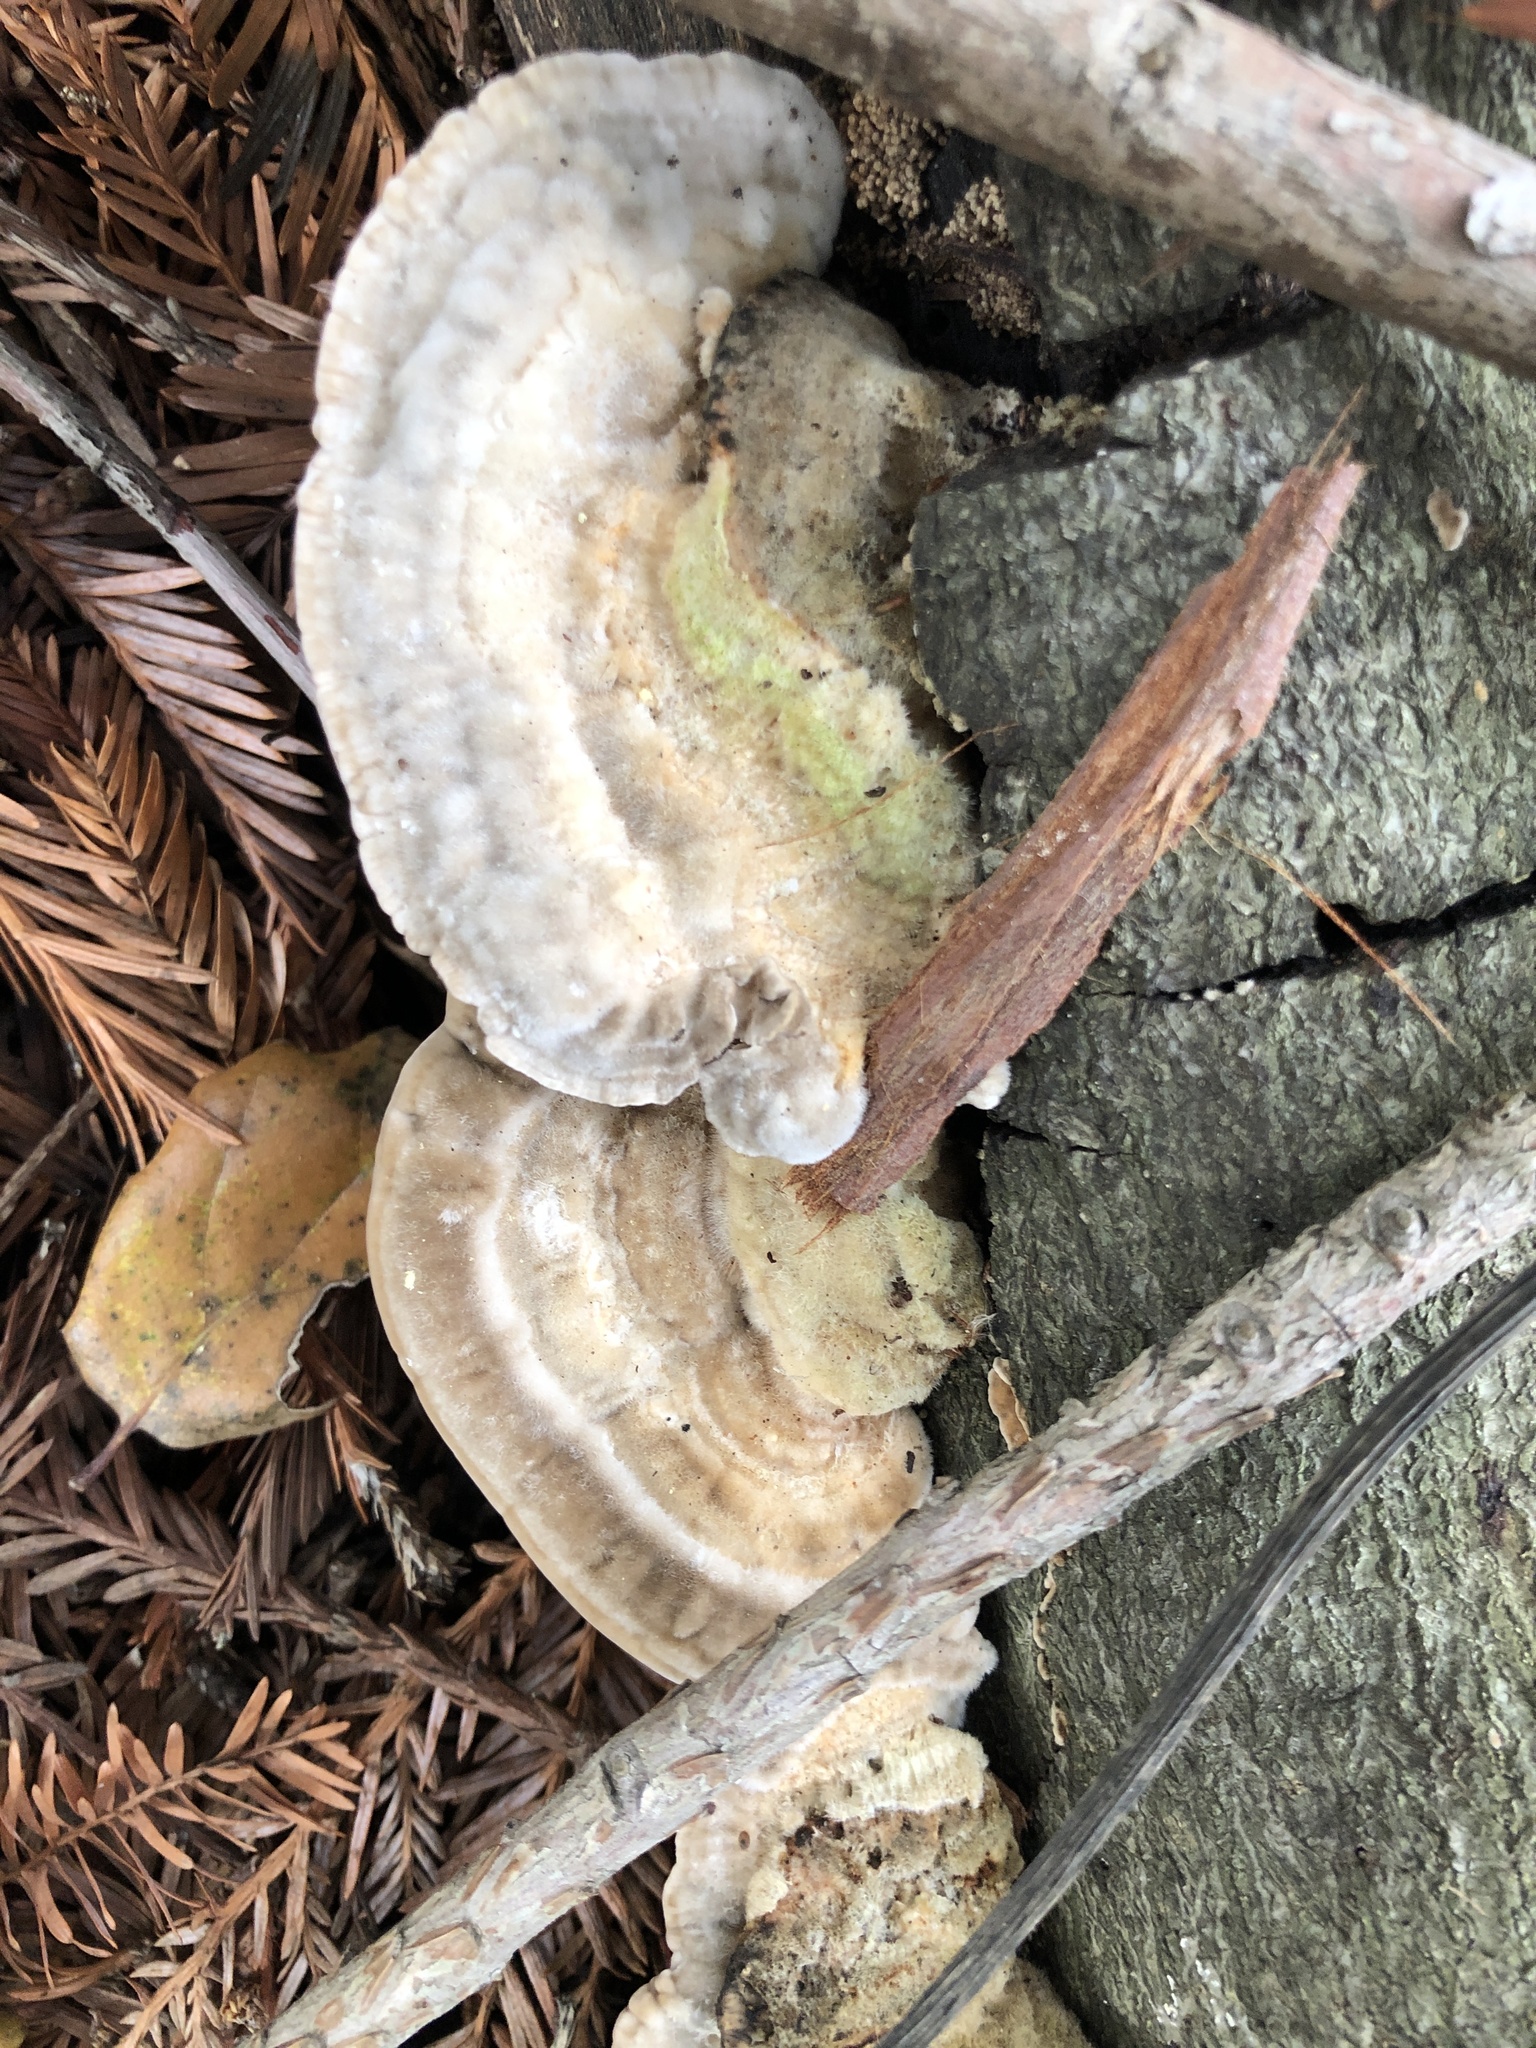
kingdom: Fungi
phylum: Basidiomycota
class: Agaricomycetes
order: Polyporales
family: Polyporaceae
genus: Lenzites
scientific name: Lenzites betulinus
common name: Birch mazegill
